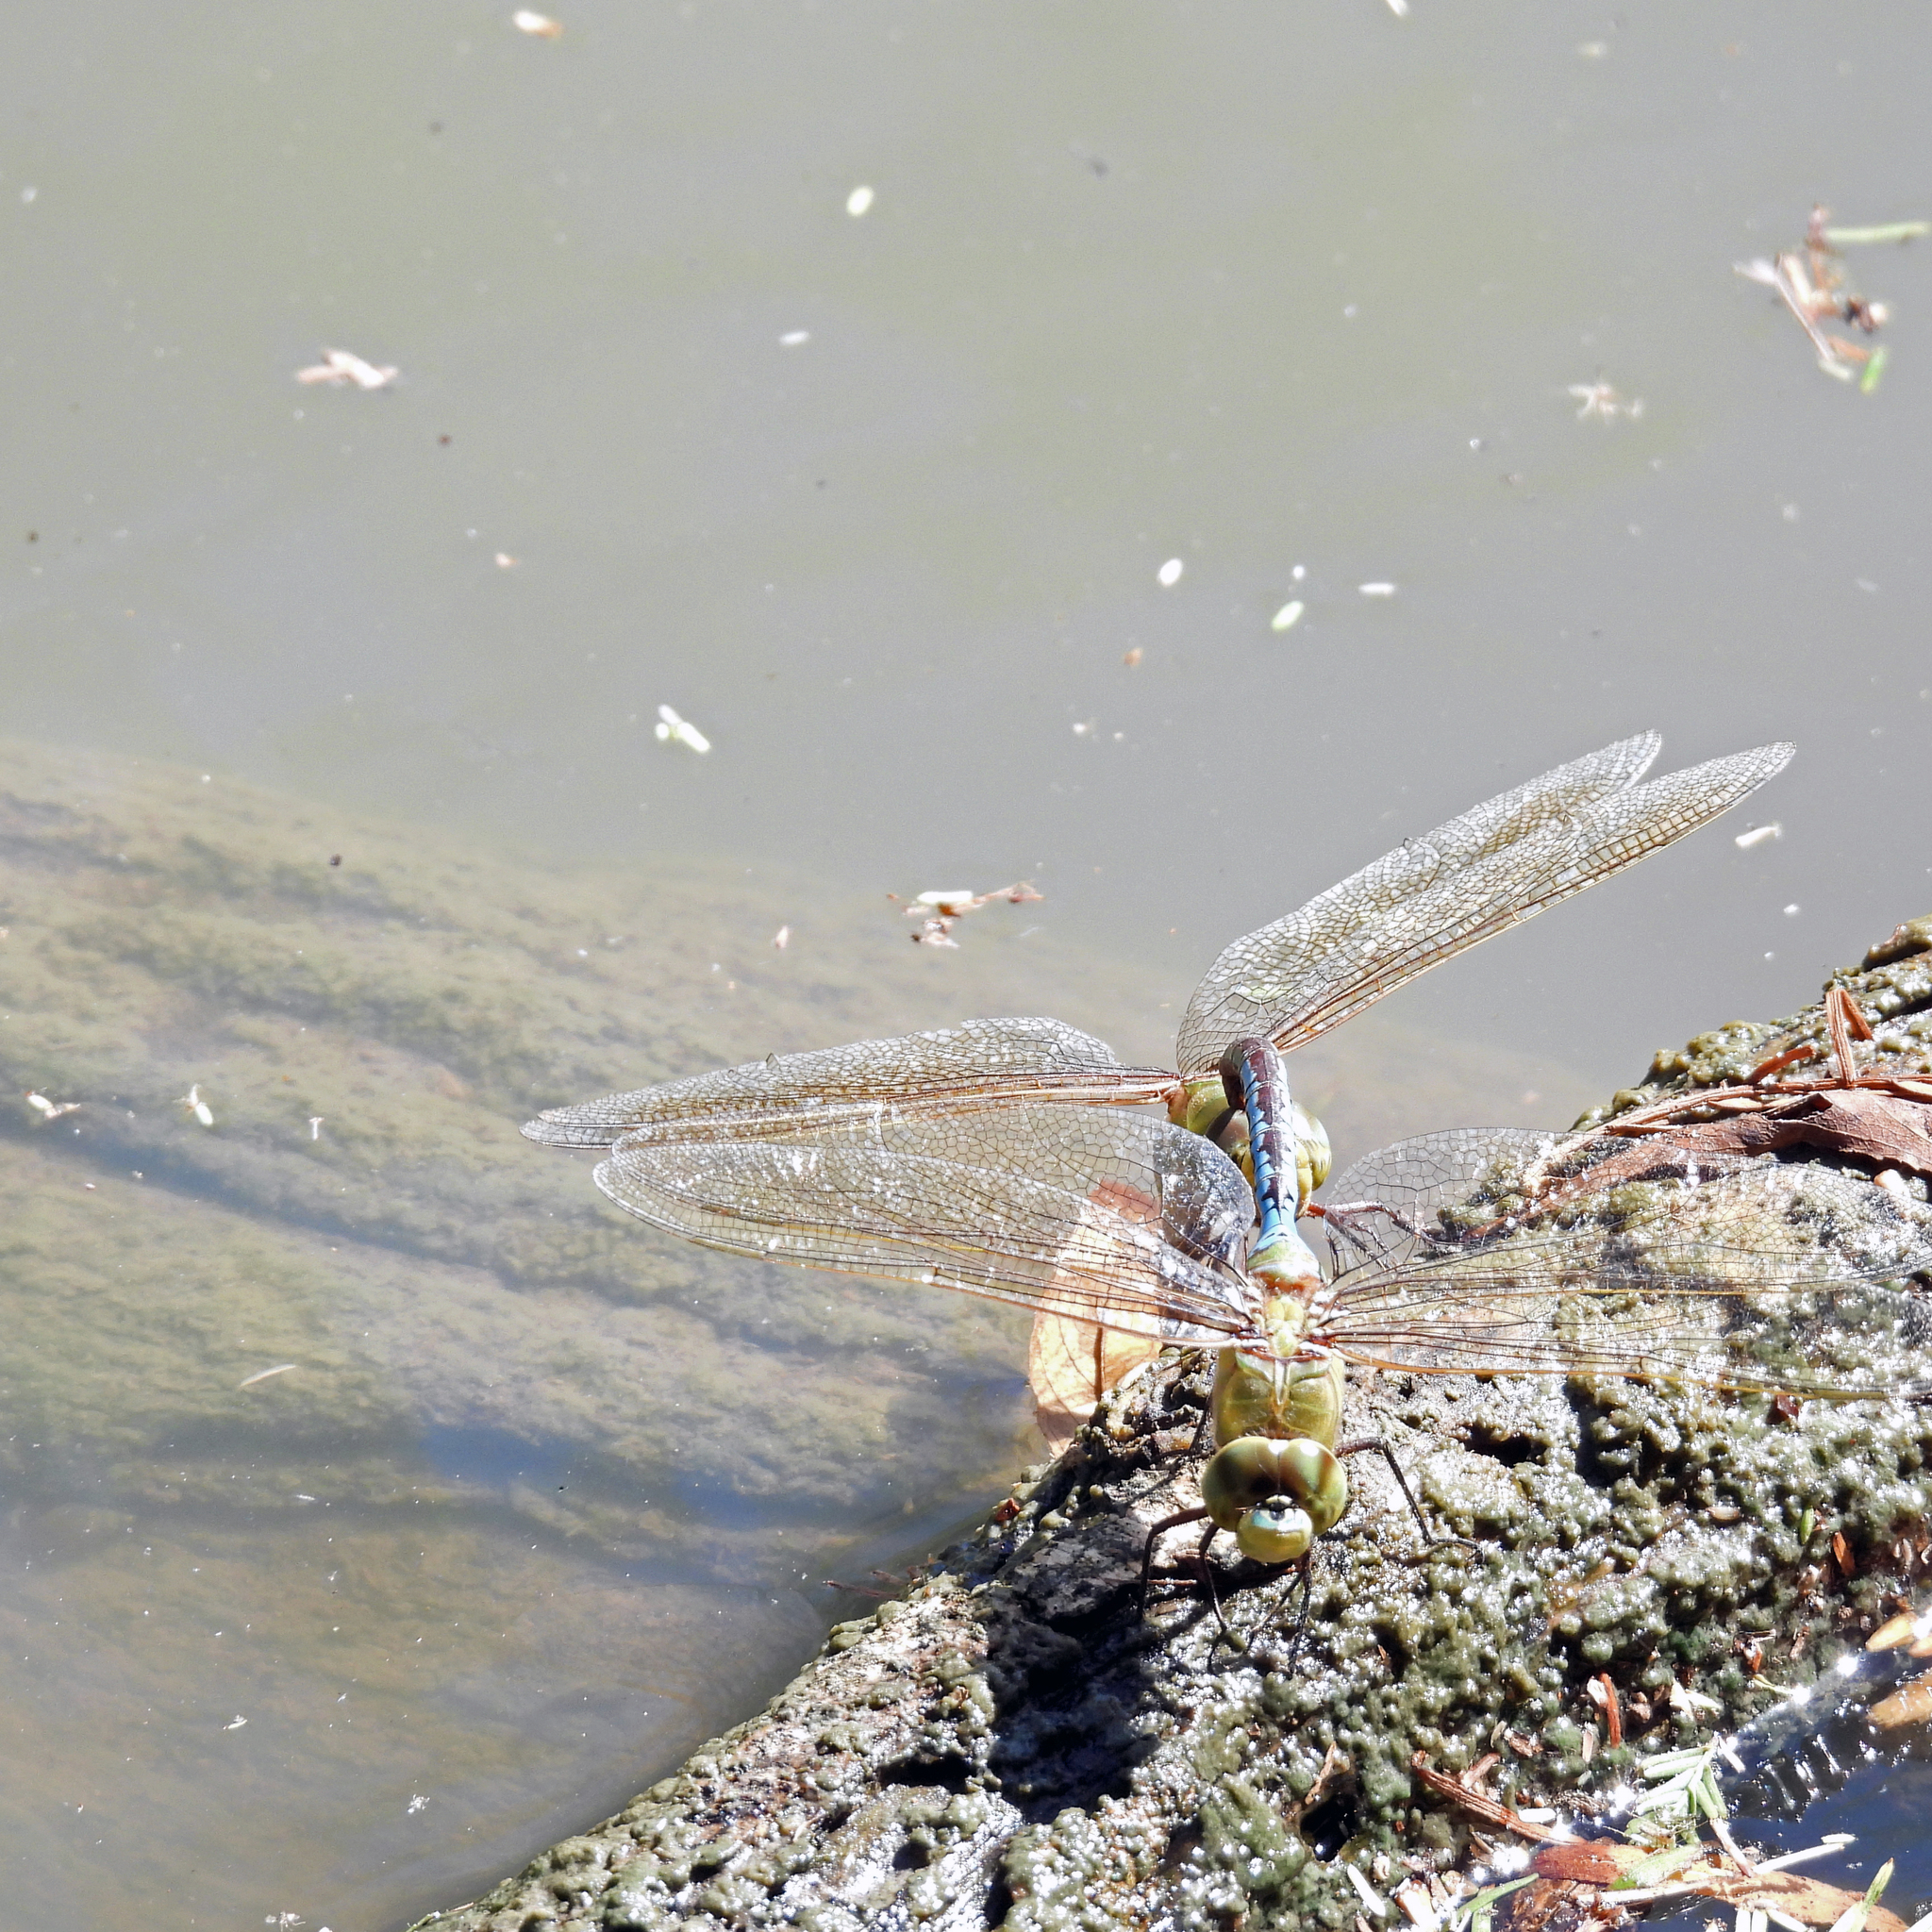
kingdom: Animalia
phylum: Arthropoda
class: Insecta
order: Odonata
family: Aeshnidae
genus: Anax
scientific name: Anax junius
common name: Common green darner
